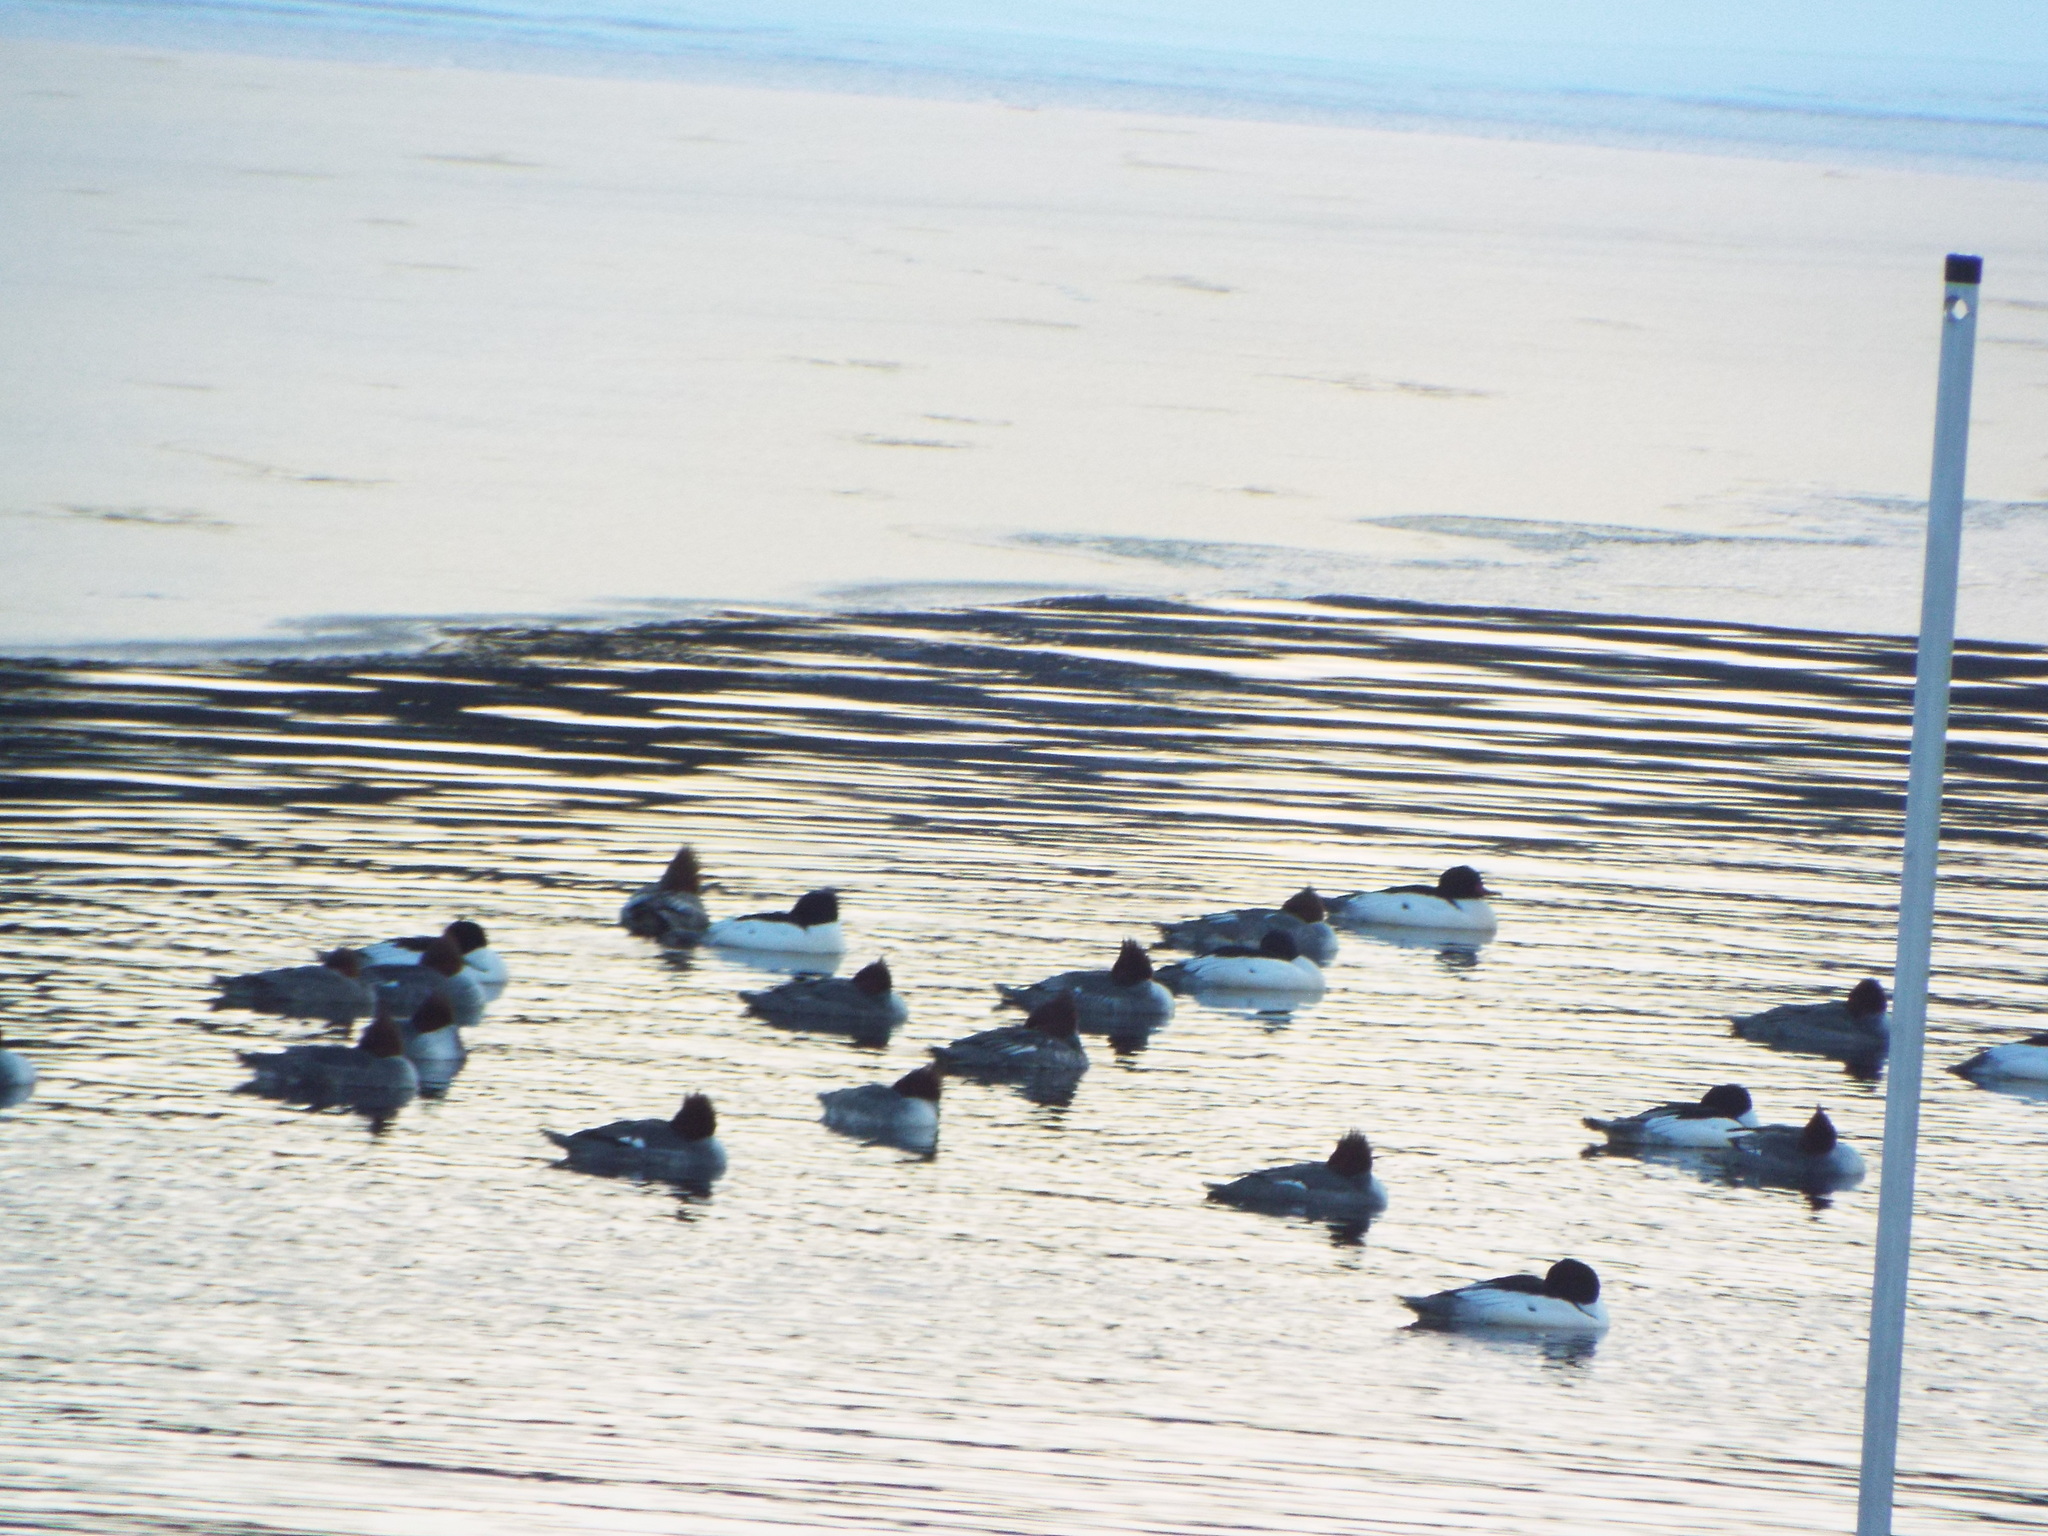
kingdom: Animalia
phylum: Chordata
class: Aves
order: Anseriformes
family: Anatidae
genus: Mergus
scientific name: Mergus merganser
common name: Common merganser
